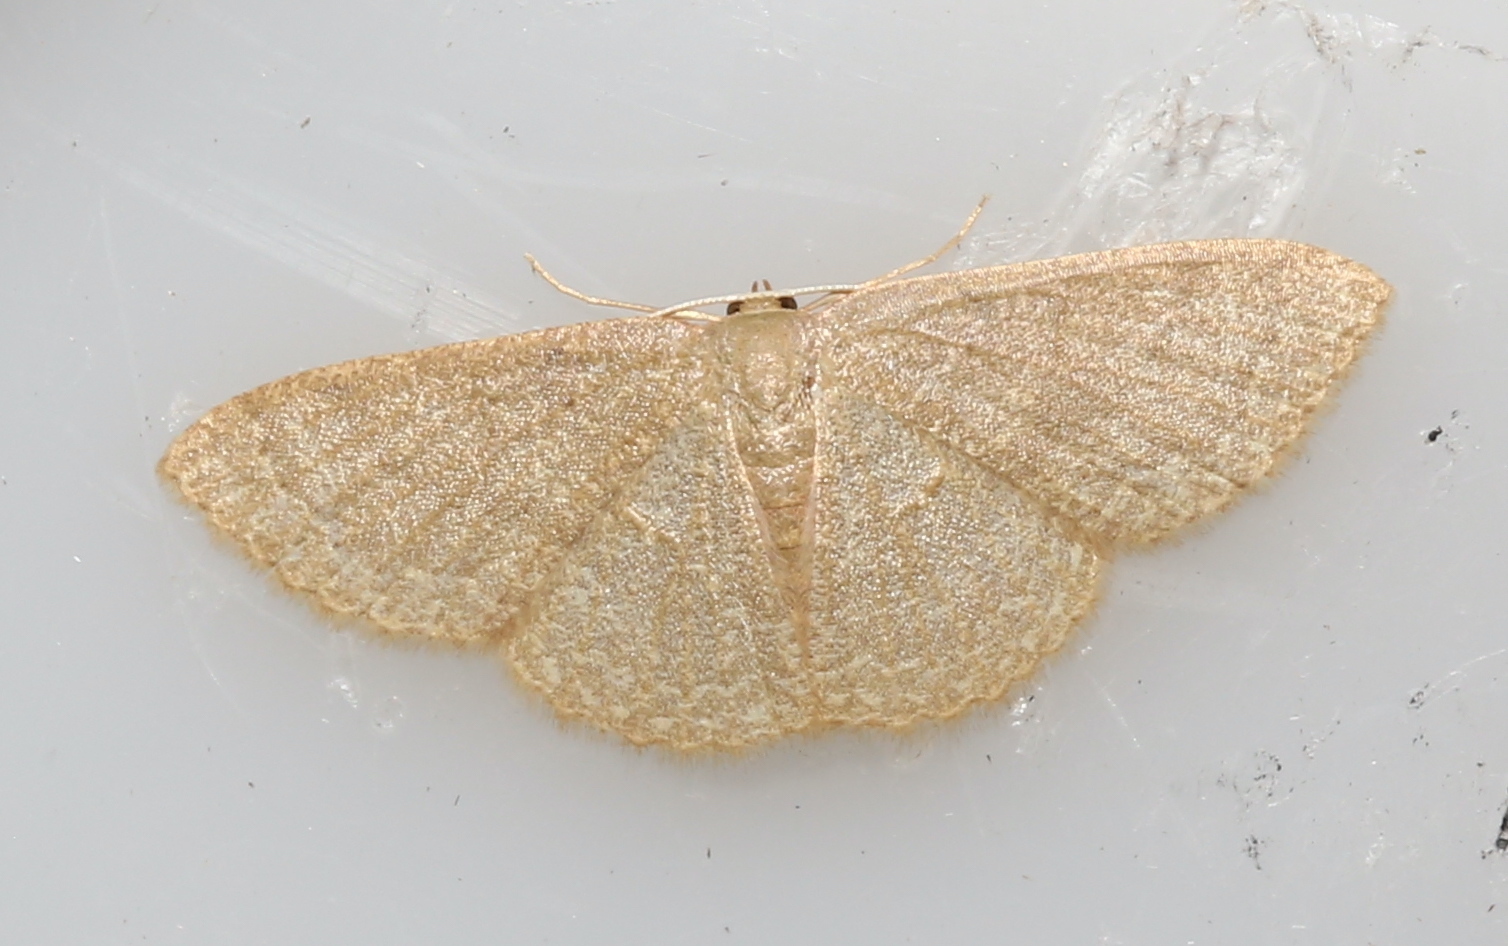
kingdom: Animalia
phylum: Arthropoda
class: Insecta
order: Lepidoptera
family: Geometridae
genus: Pleuroprucha
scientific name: Pleuroprucha insulsaria
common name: Common tan wave
